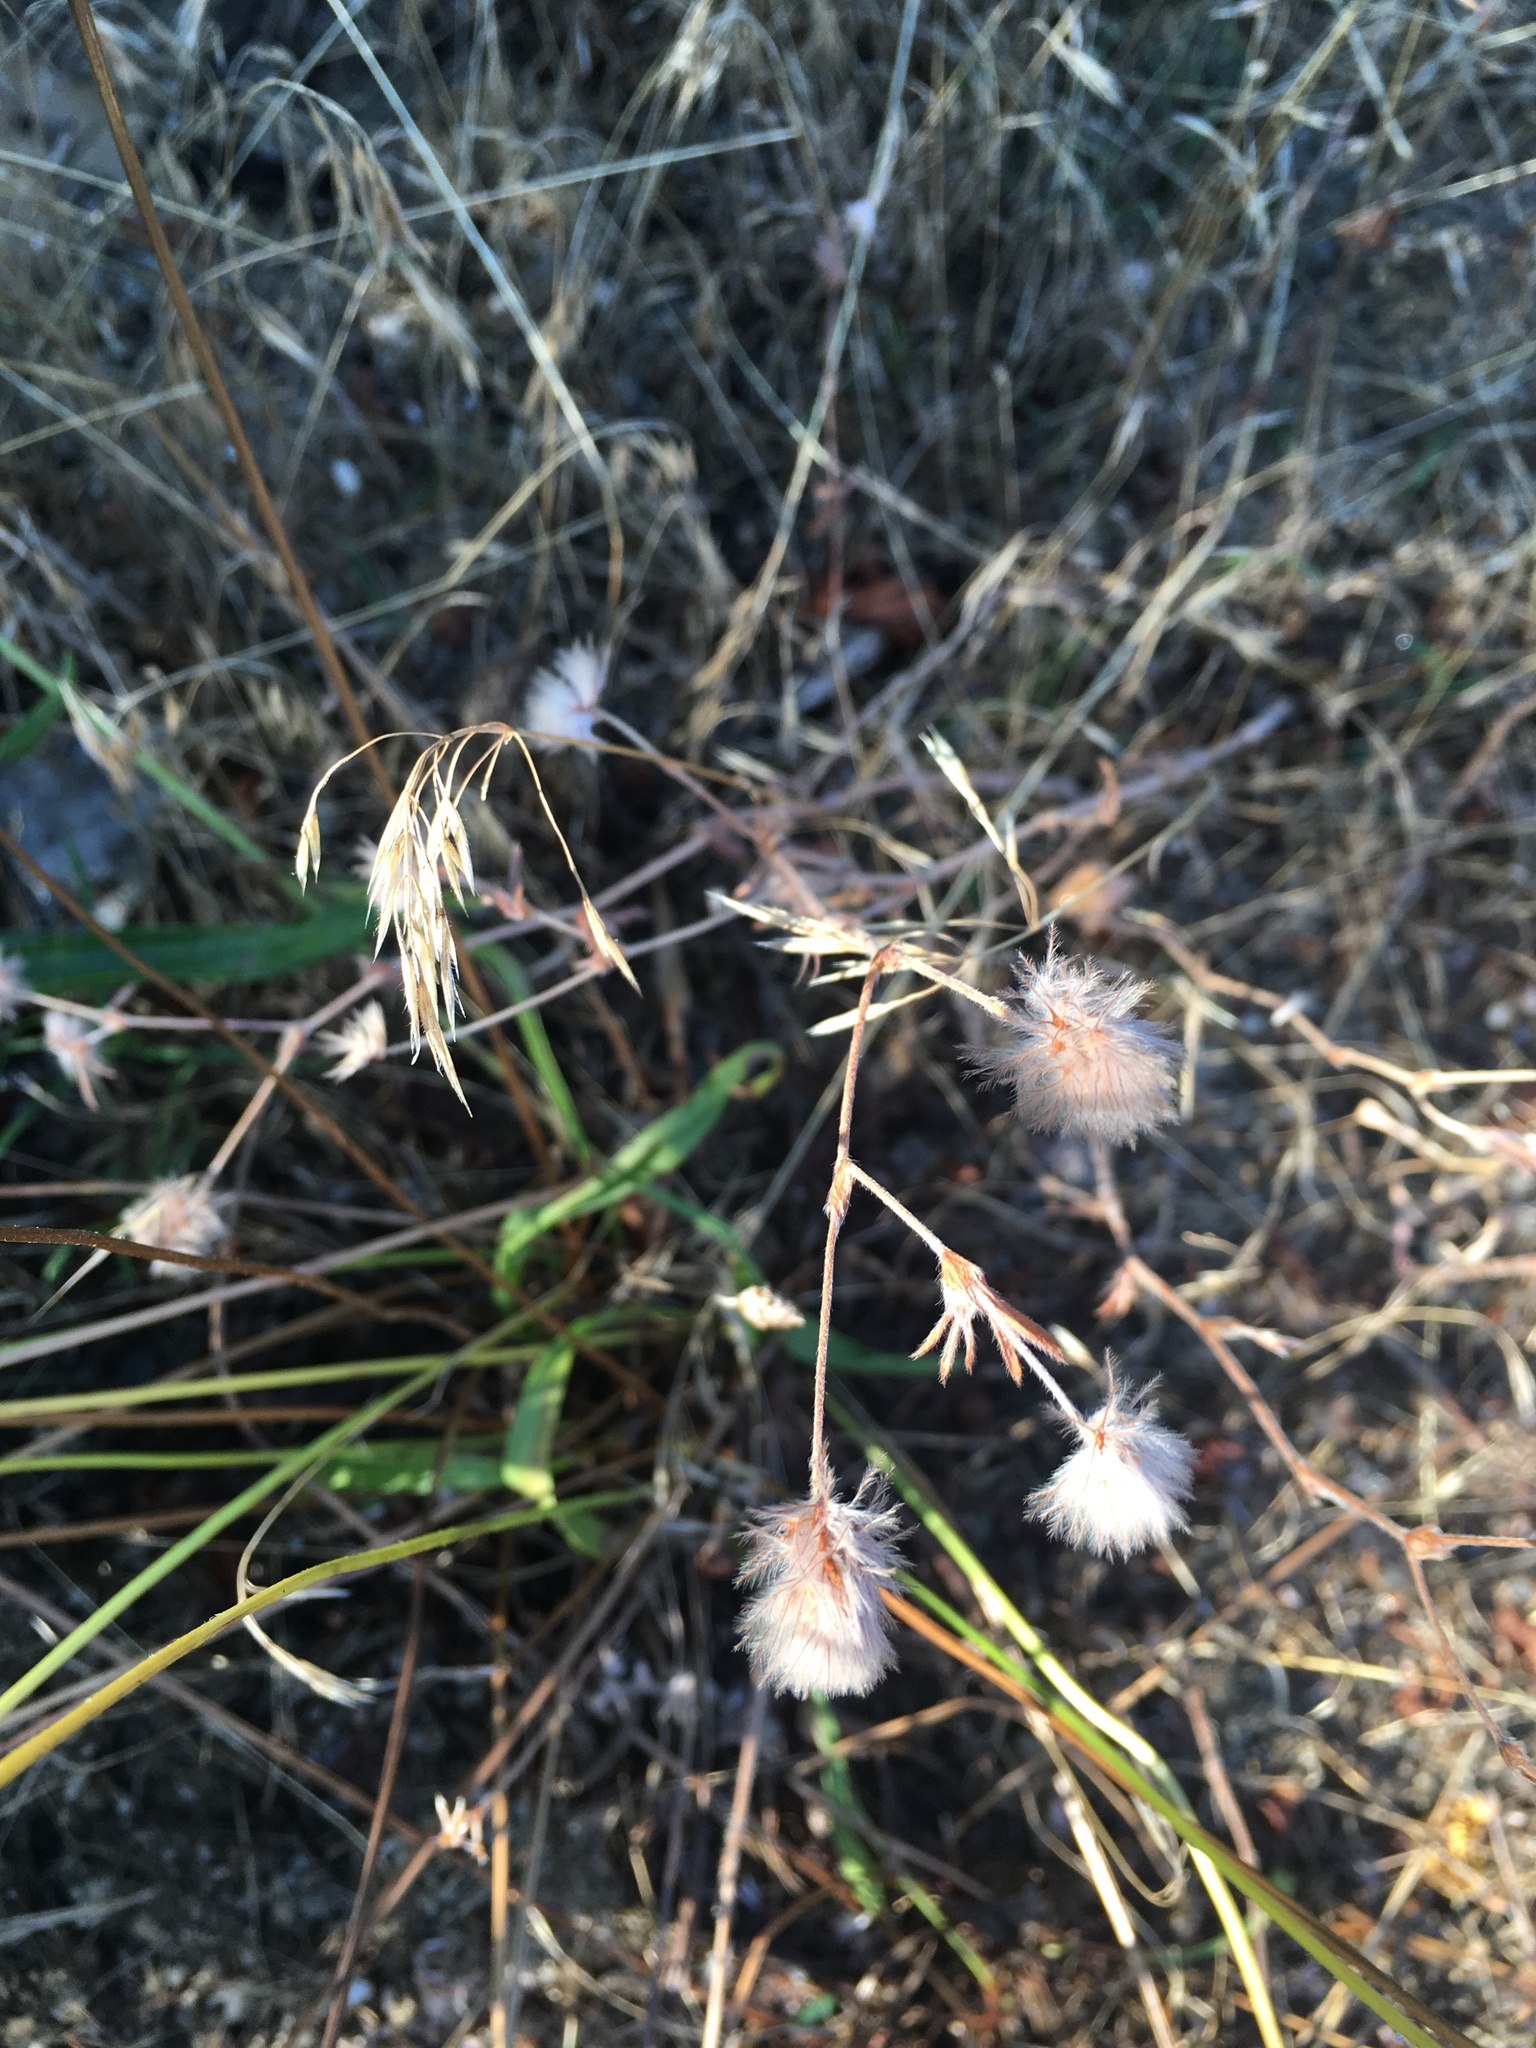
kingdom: Plantae
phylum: Tracheophyta
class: Magnoliopsida
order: Fabales
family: Fabaceae
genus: Trifolium
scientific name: Trifolium arvense
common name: Hare's-foot clover
